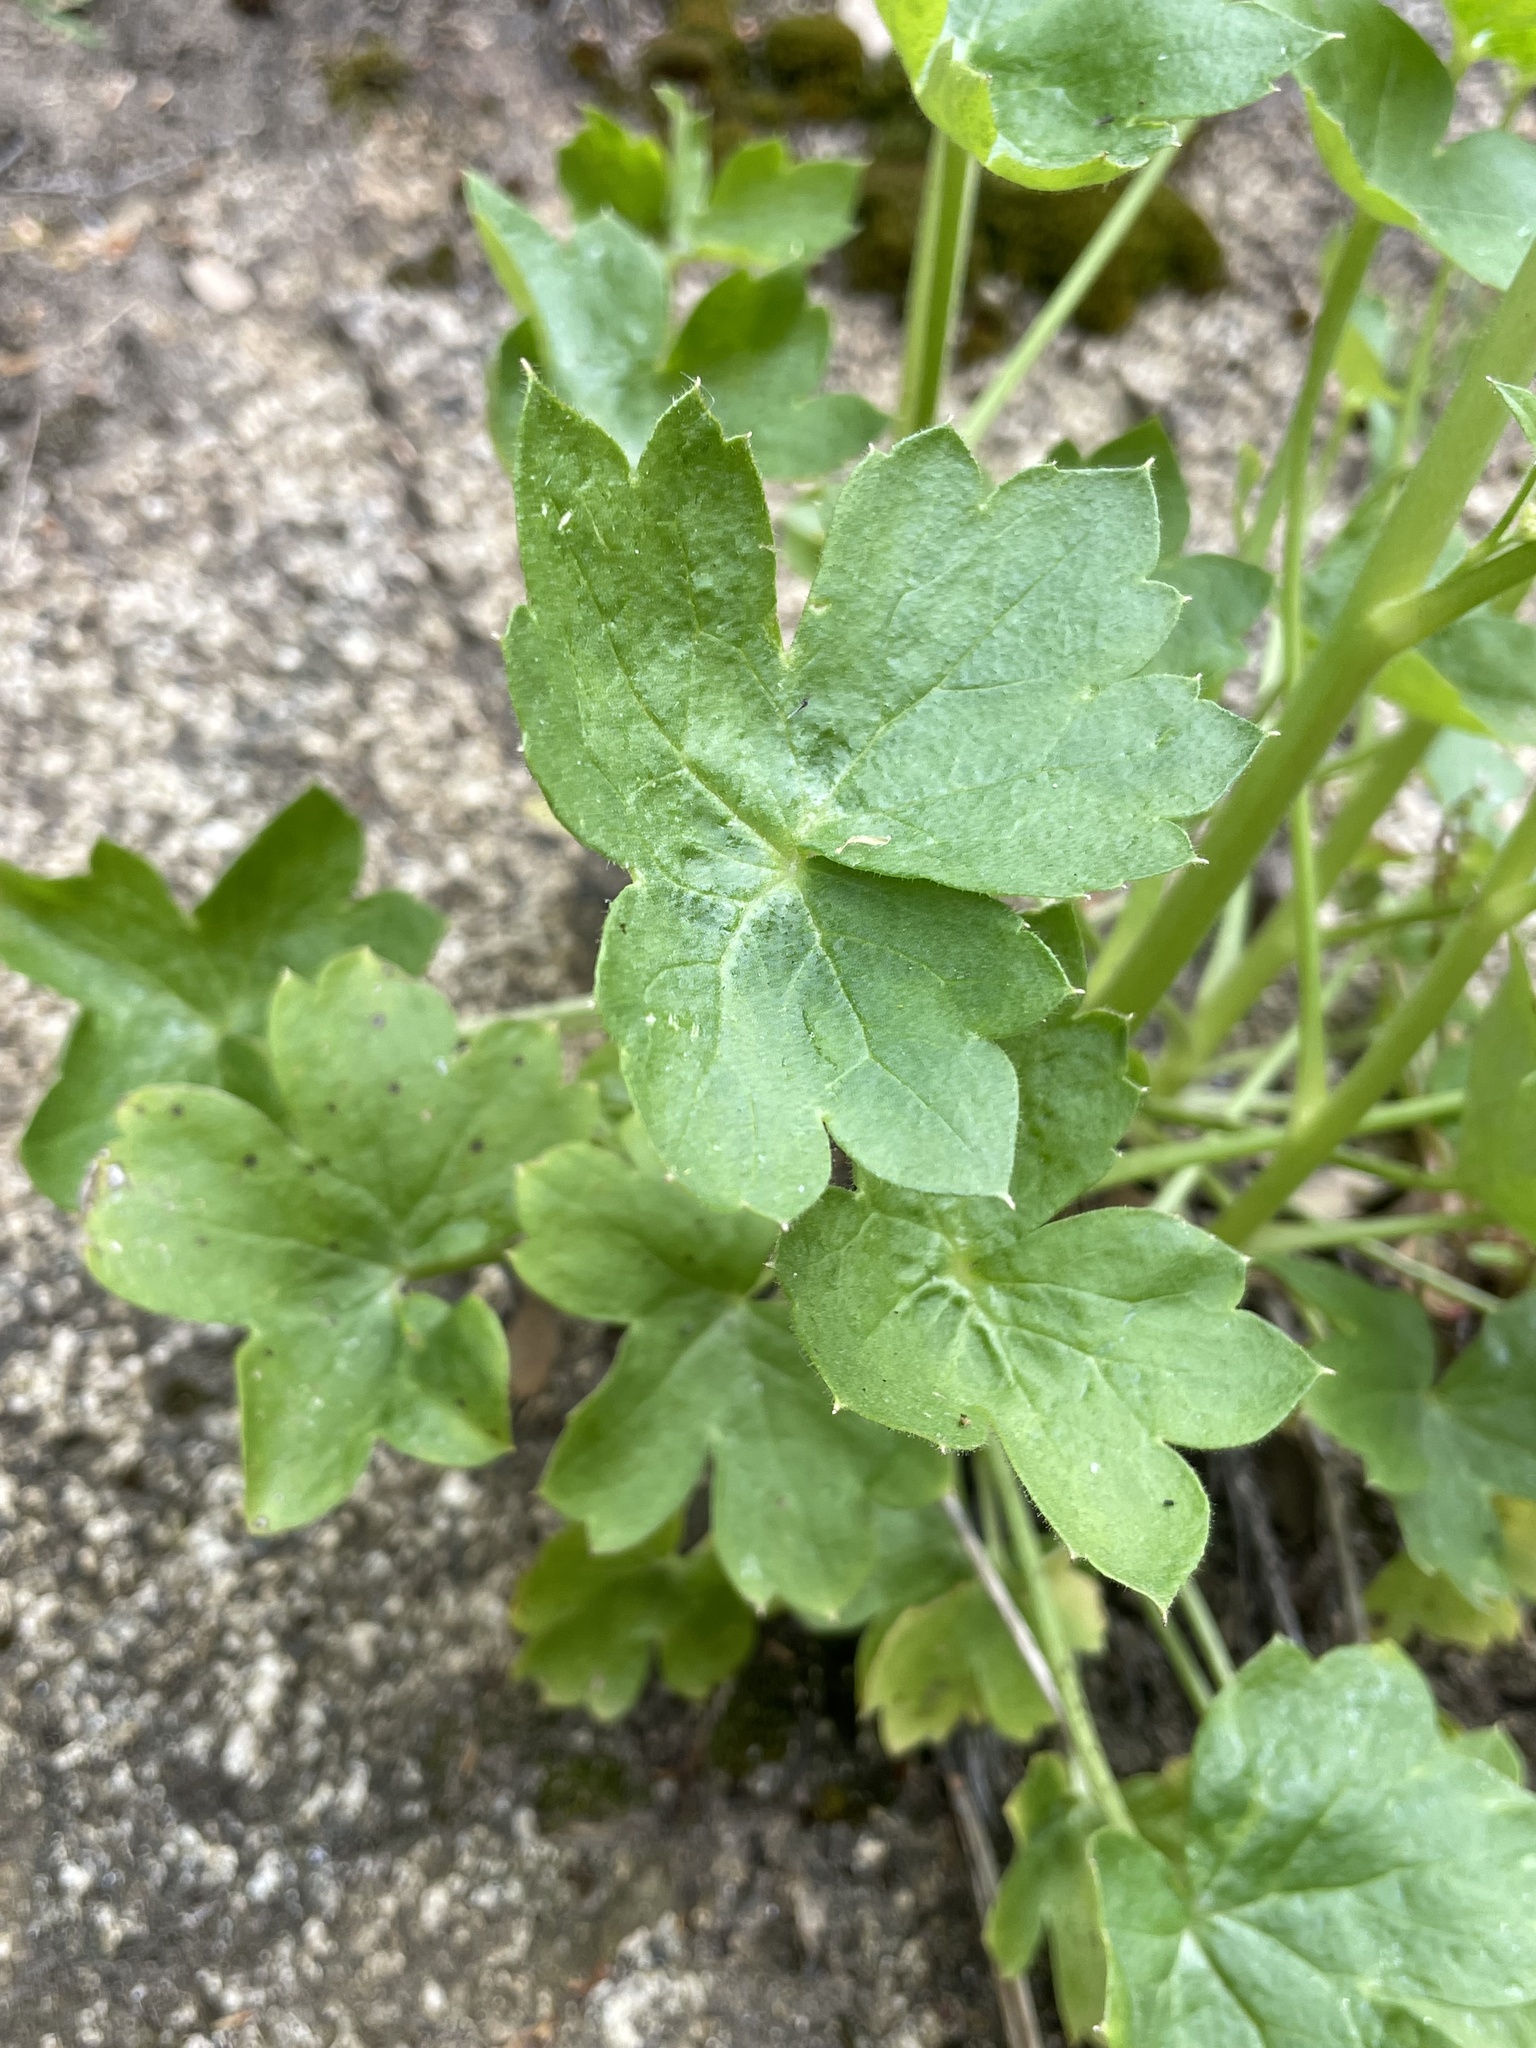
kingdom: Plantae
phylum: Tracheophyta
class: Magnoliopsida
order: Ranunculales
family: Ranunculaceae
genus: Delphinium
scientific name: Delphinium purpusii
